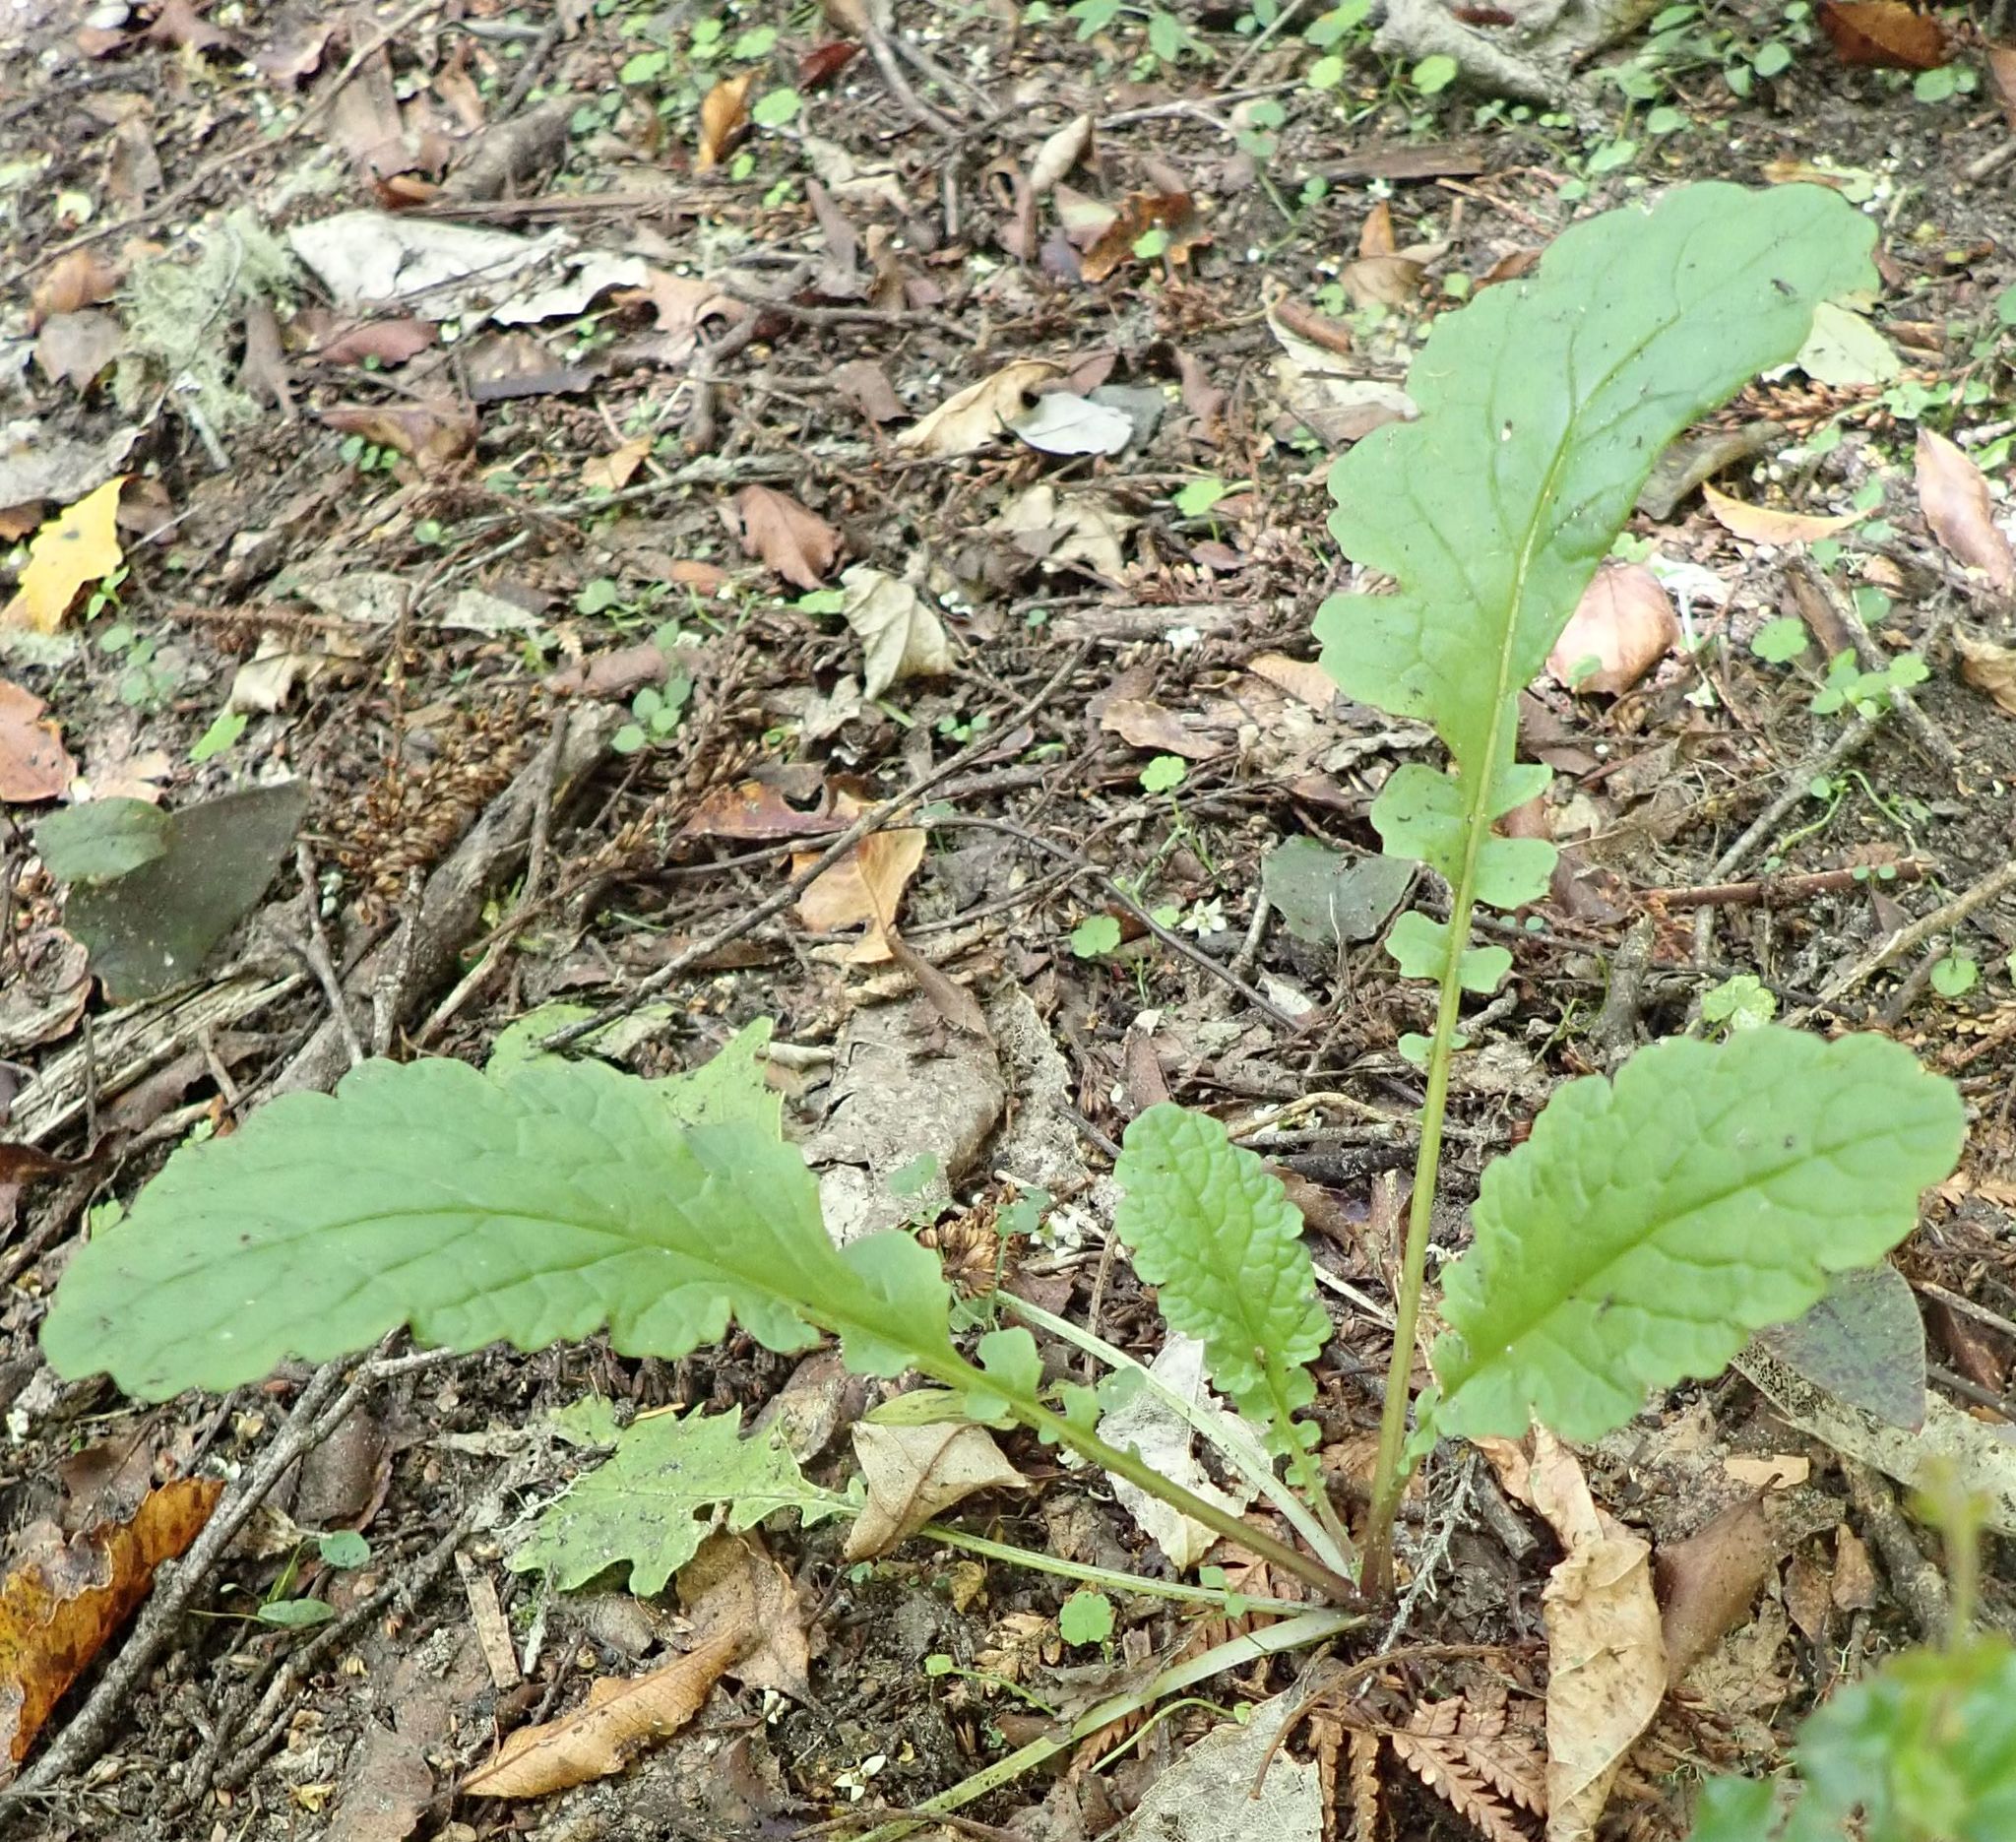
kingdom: Plantae
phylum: Tracheophyta
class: Magnoliopsida
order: Asterales
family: Asteraceae
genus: Jacobaea
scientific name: Jacobaea vulgaris
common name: Stinking willie
